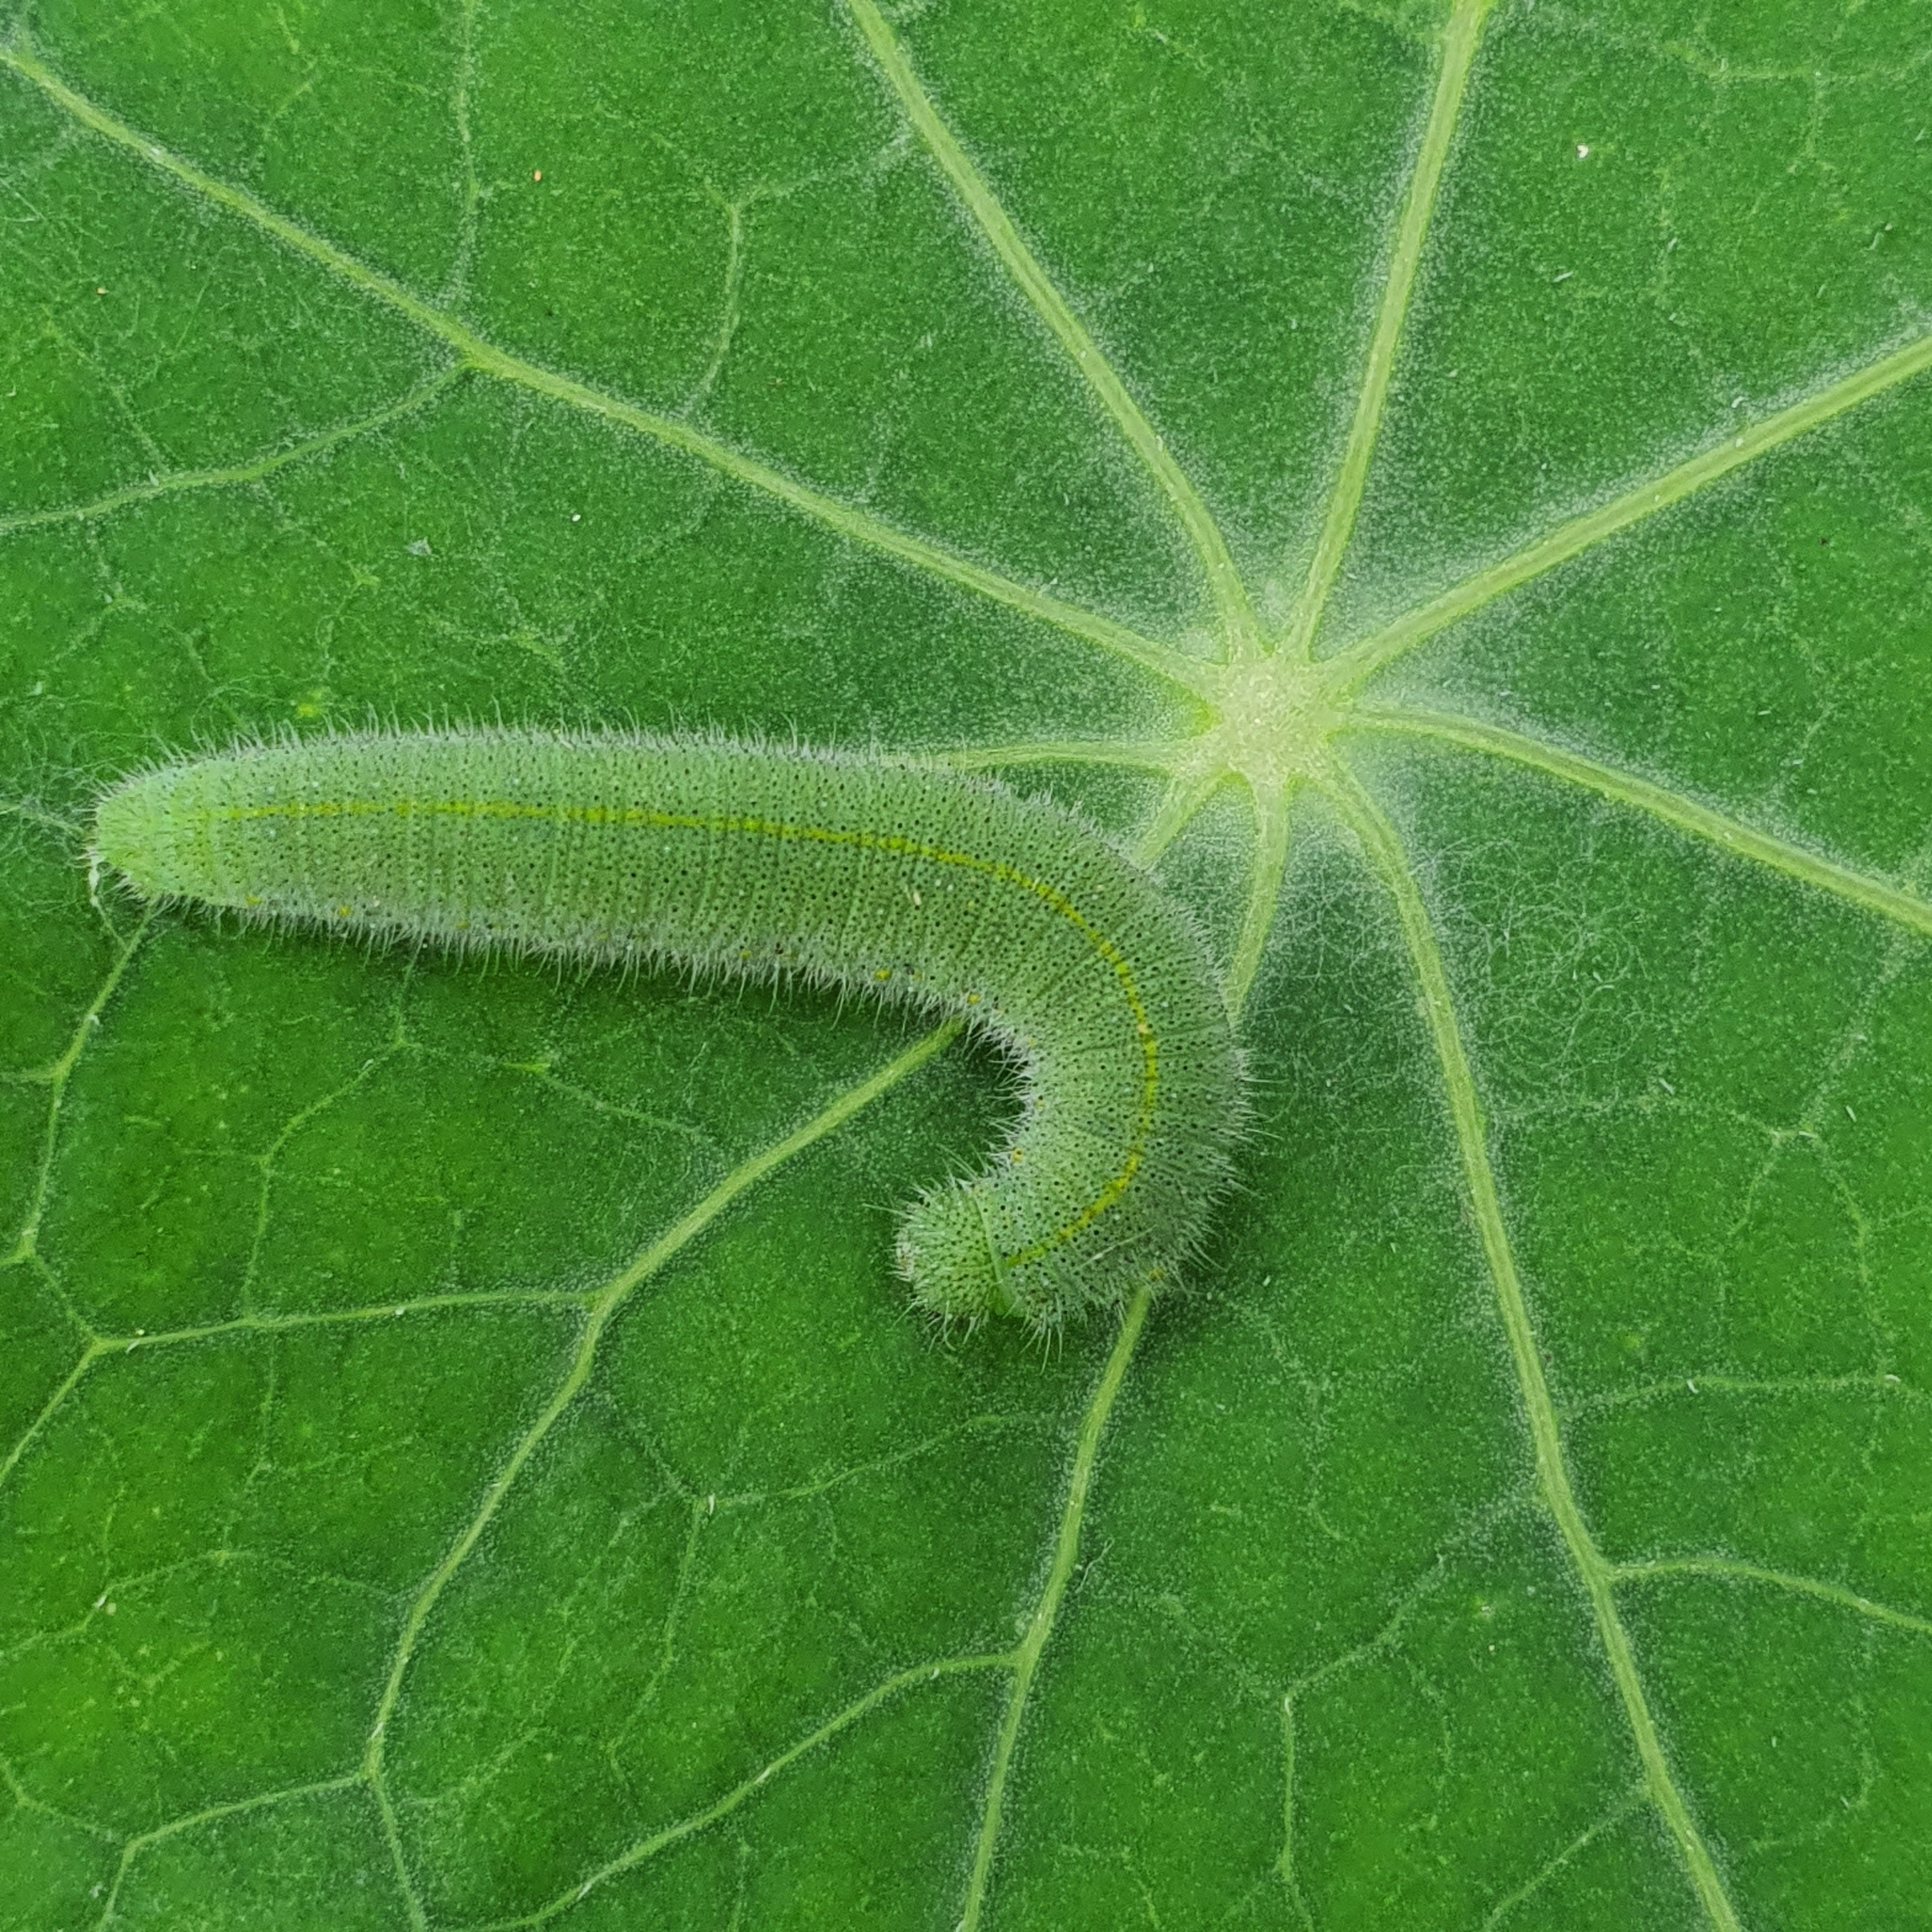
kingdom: Animalia
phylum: Arthropoda
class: Insecta
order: Lepidoptera
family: Pieridae
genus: Pieris
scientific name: Pieris rapae
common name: Small white
